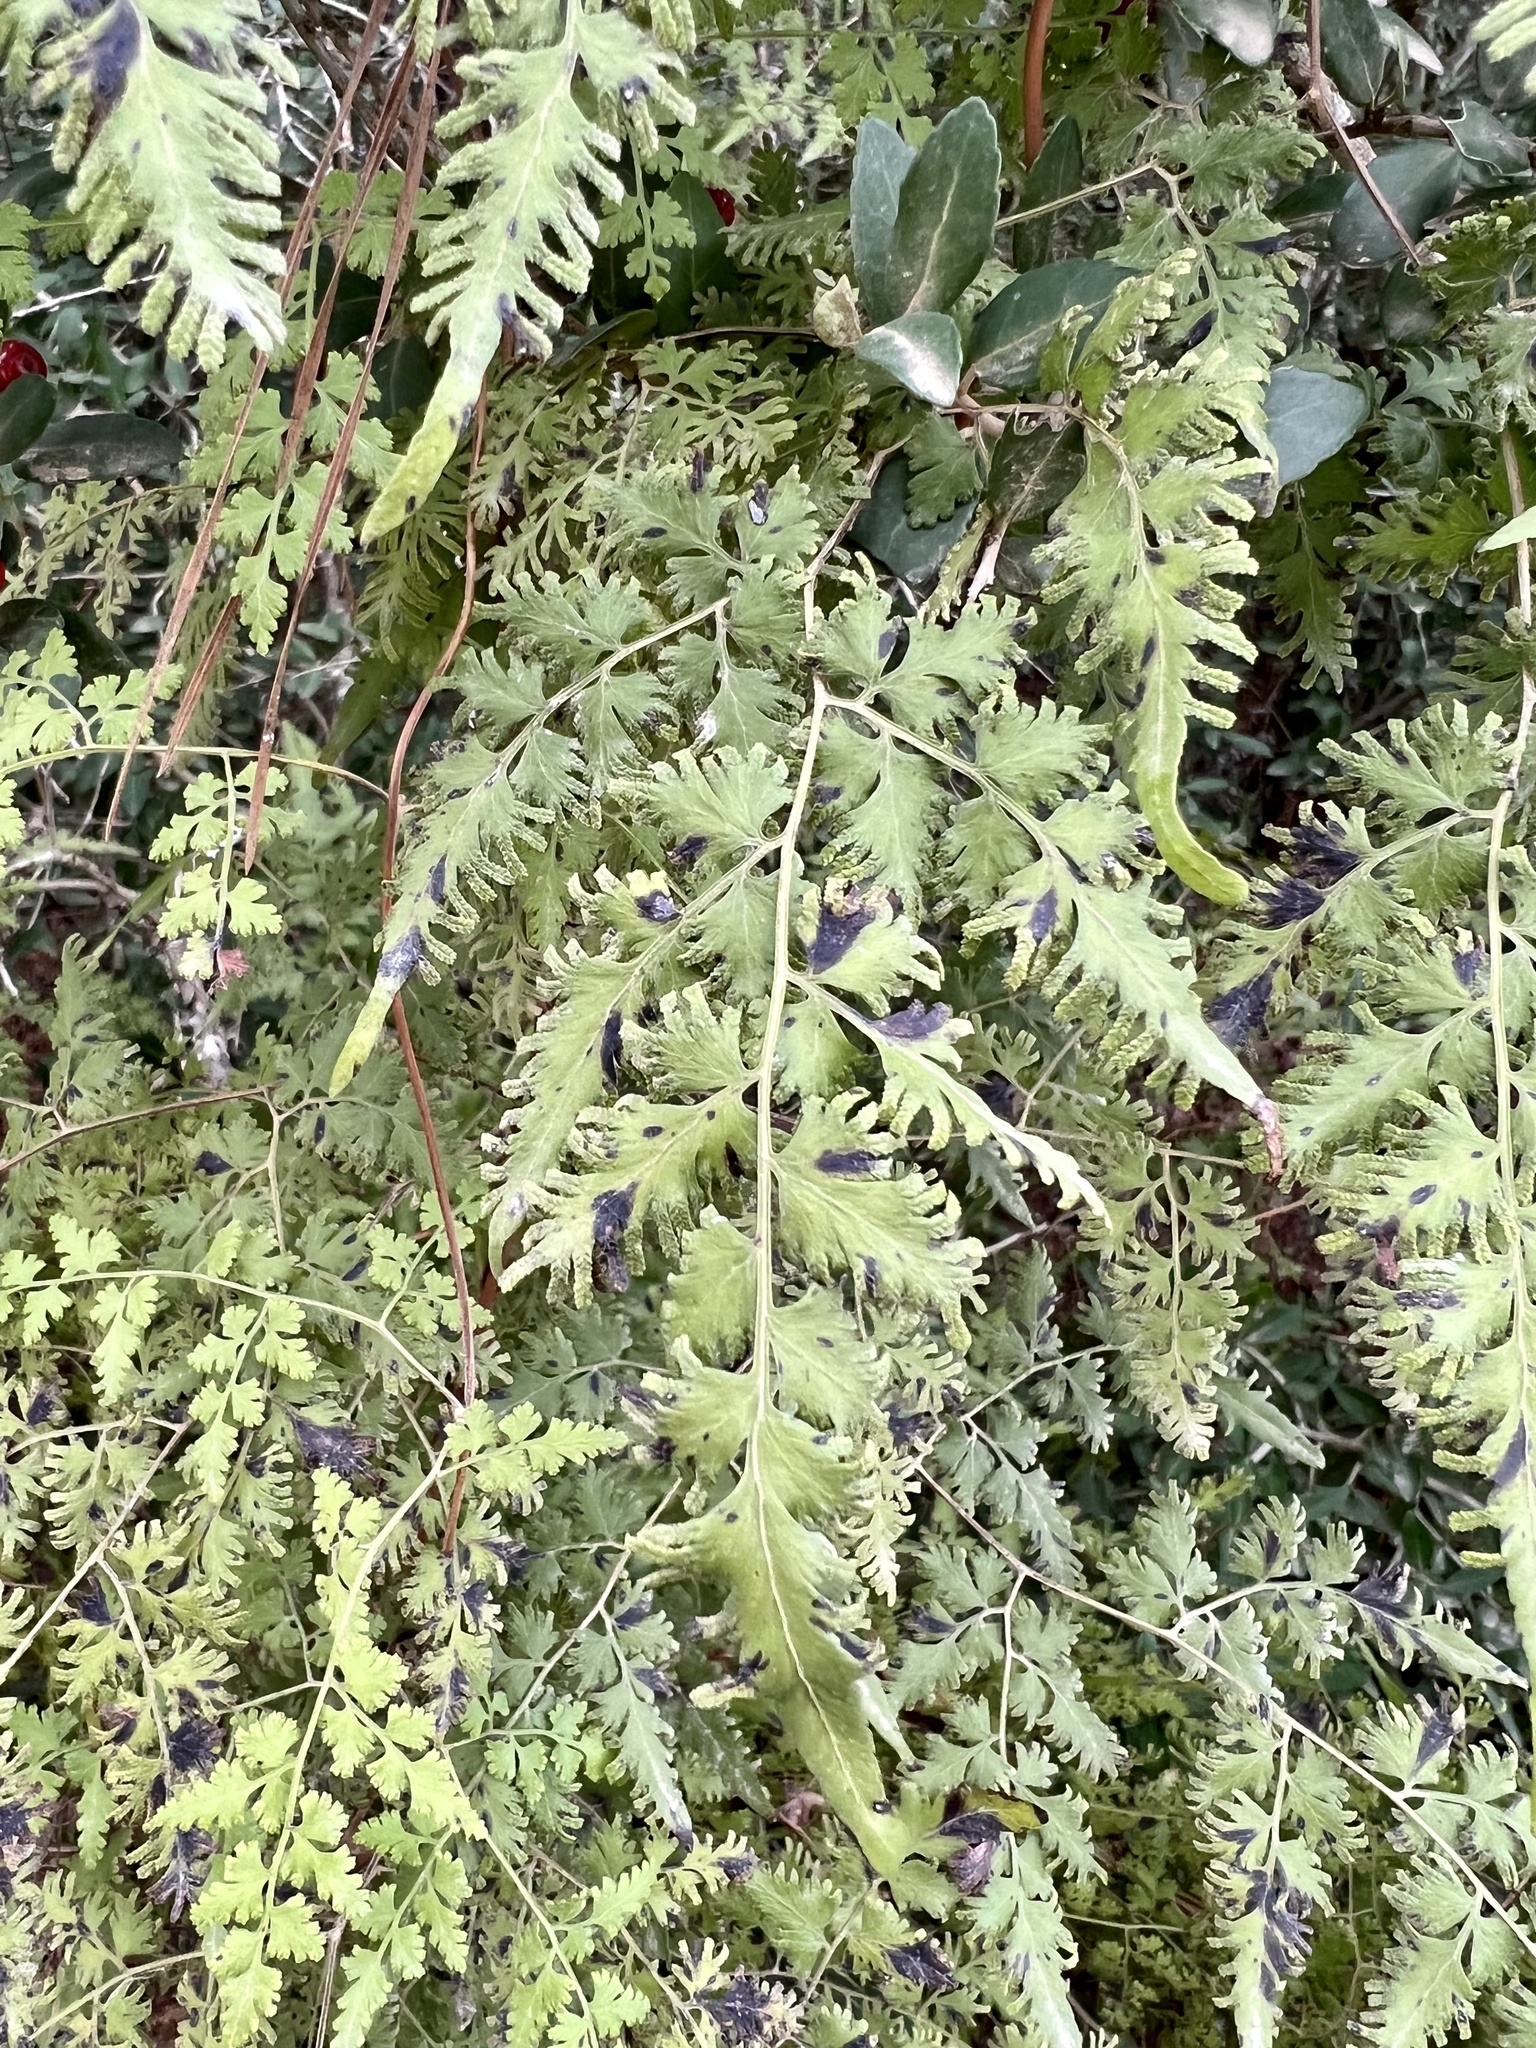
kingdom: Plantae
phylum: Tracheophyta
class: Polypodiopsida
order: Schizaeales
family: Lygodiaceae
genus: Lygodium
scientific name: Lygodium japonicum
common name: Japanese climbing fern
